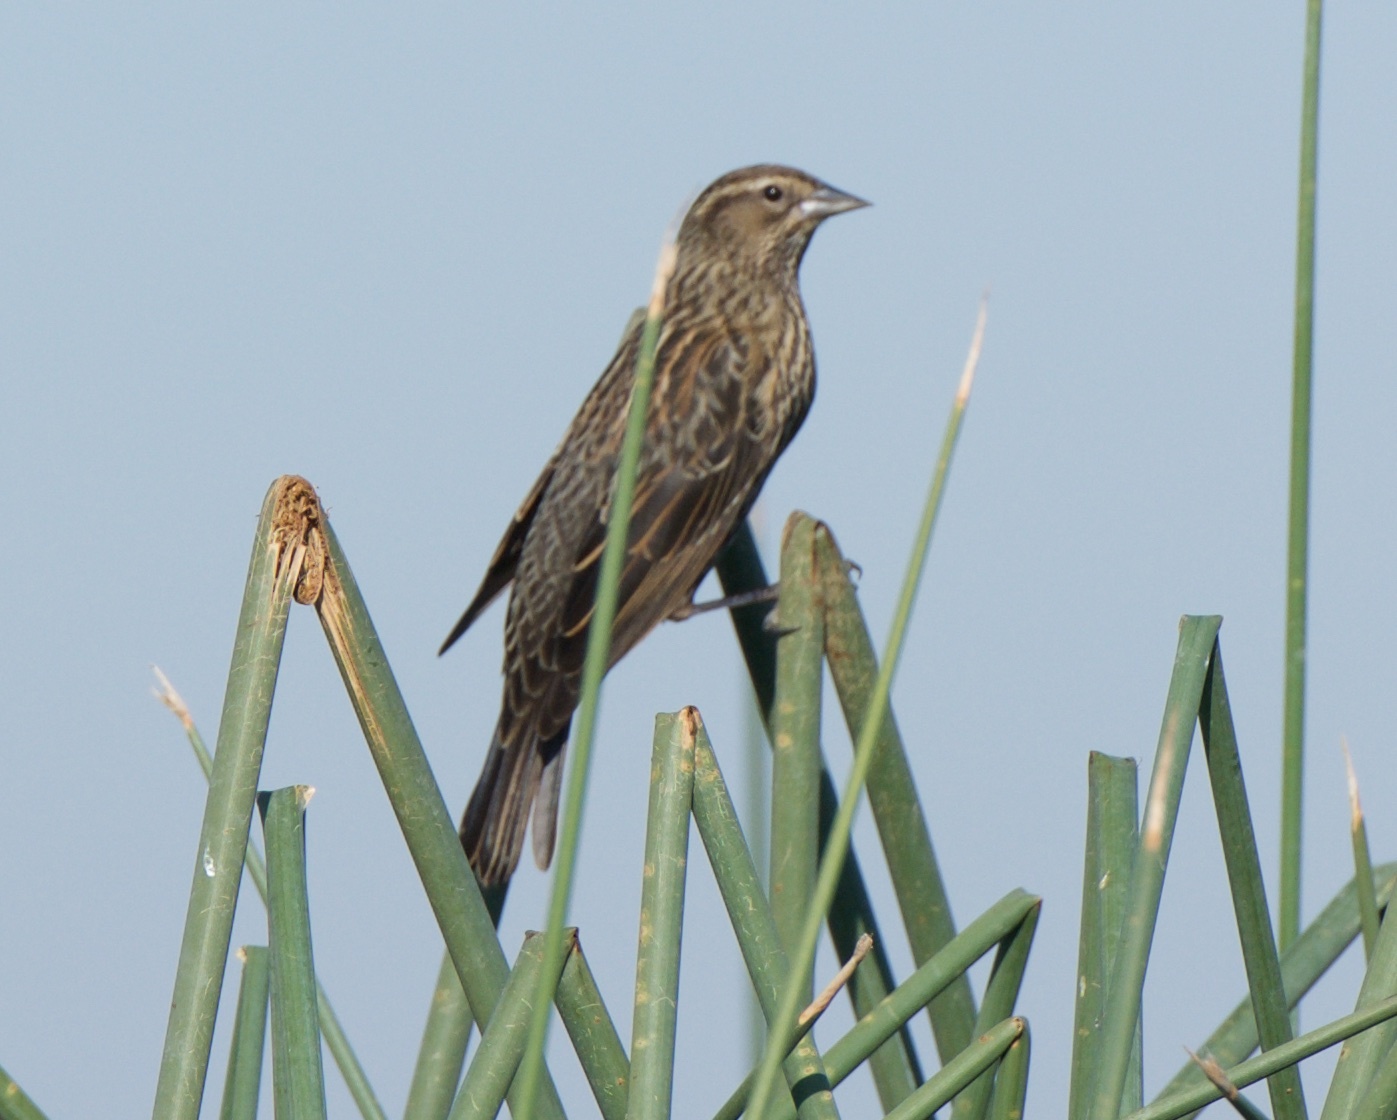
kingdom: Animalia
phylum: Chordata
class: Aves
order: Passeriformes
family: Icteridae
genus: Agelaius
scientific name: Agelaius phoeniceus
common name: Red-winged blackbird
